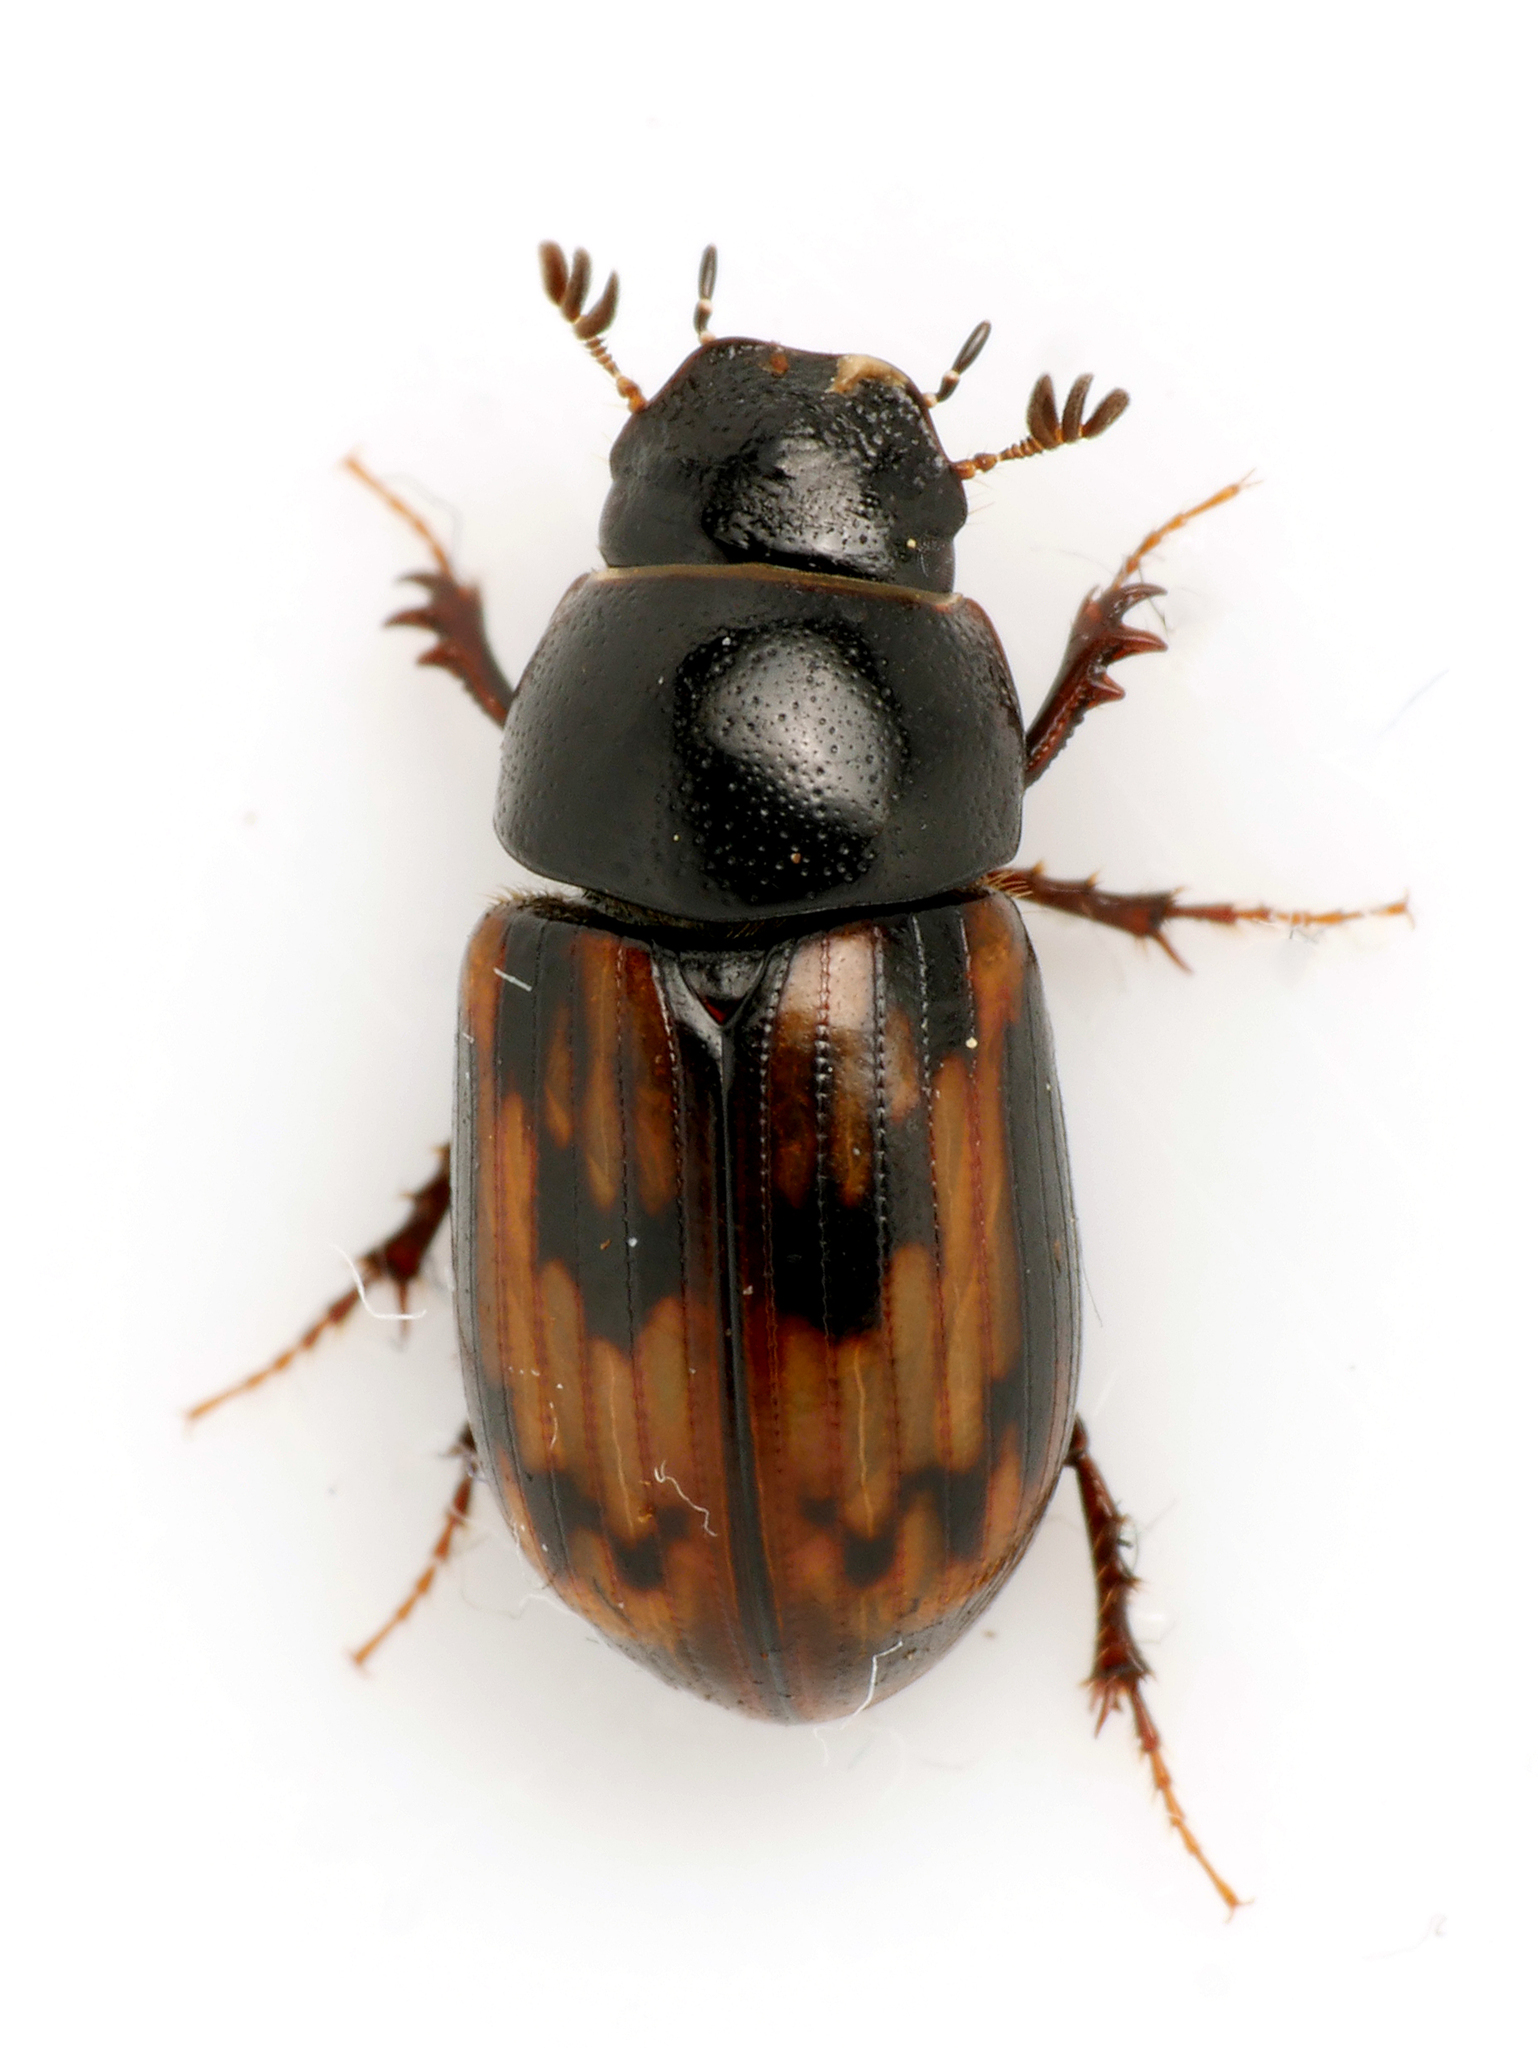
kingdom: Animalia
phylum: Arthropoda
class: Insecta
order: Coleoptera
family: Scarabaeidae
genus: Chilothorax
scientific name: Chilothorax paykulli
